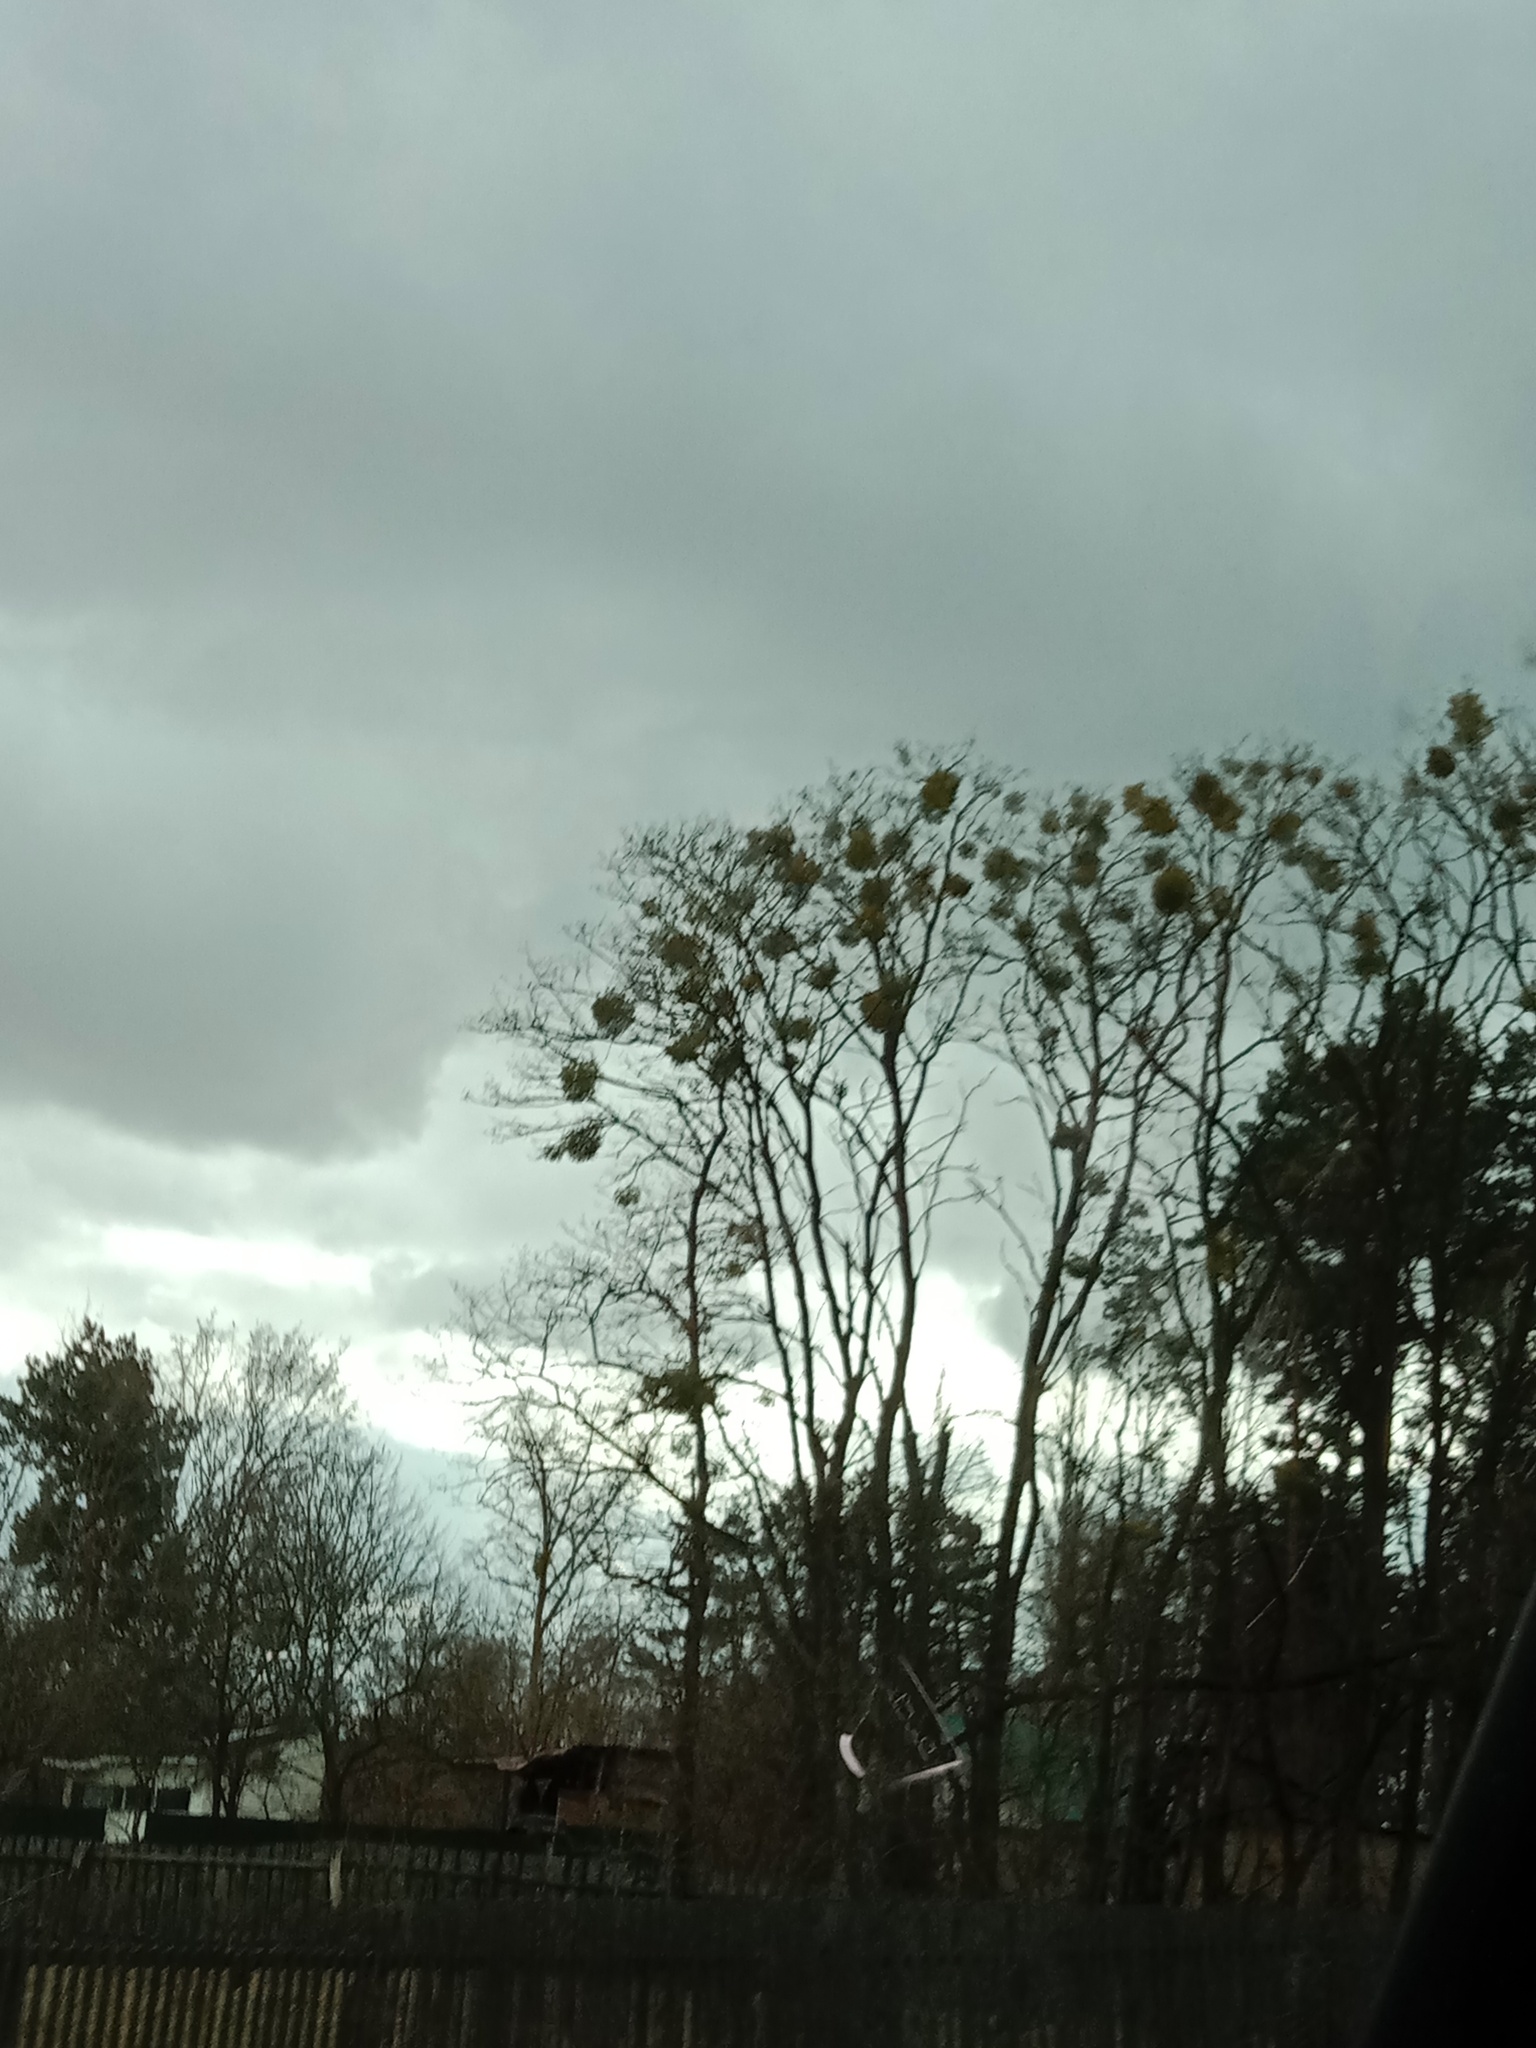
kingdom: Plantae
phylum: Tracheophyta
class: Magnoliopsida
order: Santalales
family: Viscaceae
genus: Viscum
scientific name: Viscum album
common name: Mistletoe
